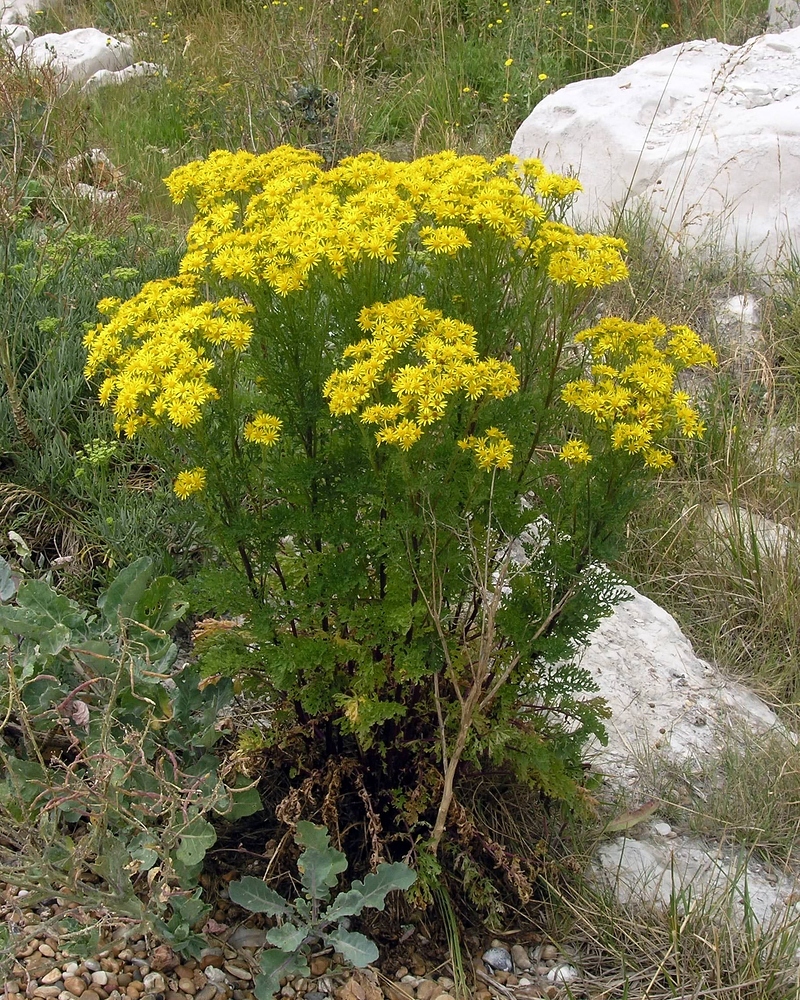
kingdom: Plantae
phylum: Tracheophyta
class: Magnoliopsida
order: Asterales
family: Asteraceae
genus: Jacobaea
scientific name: Jacobaea vulgaris
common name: Stinking willie
